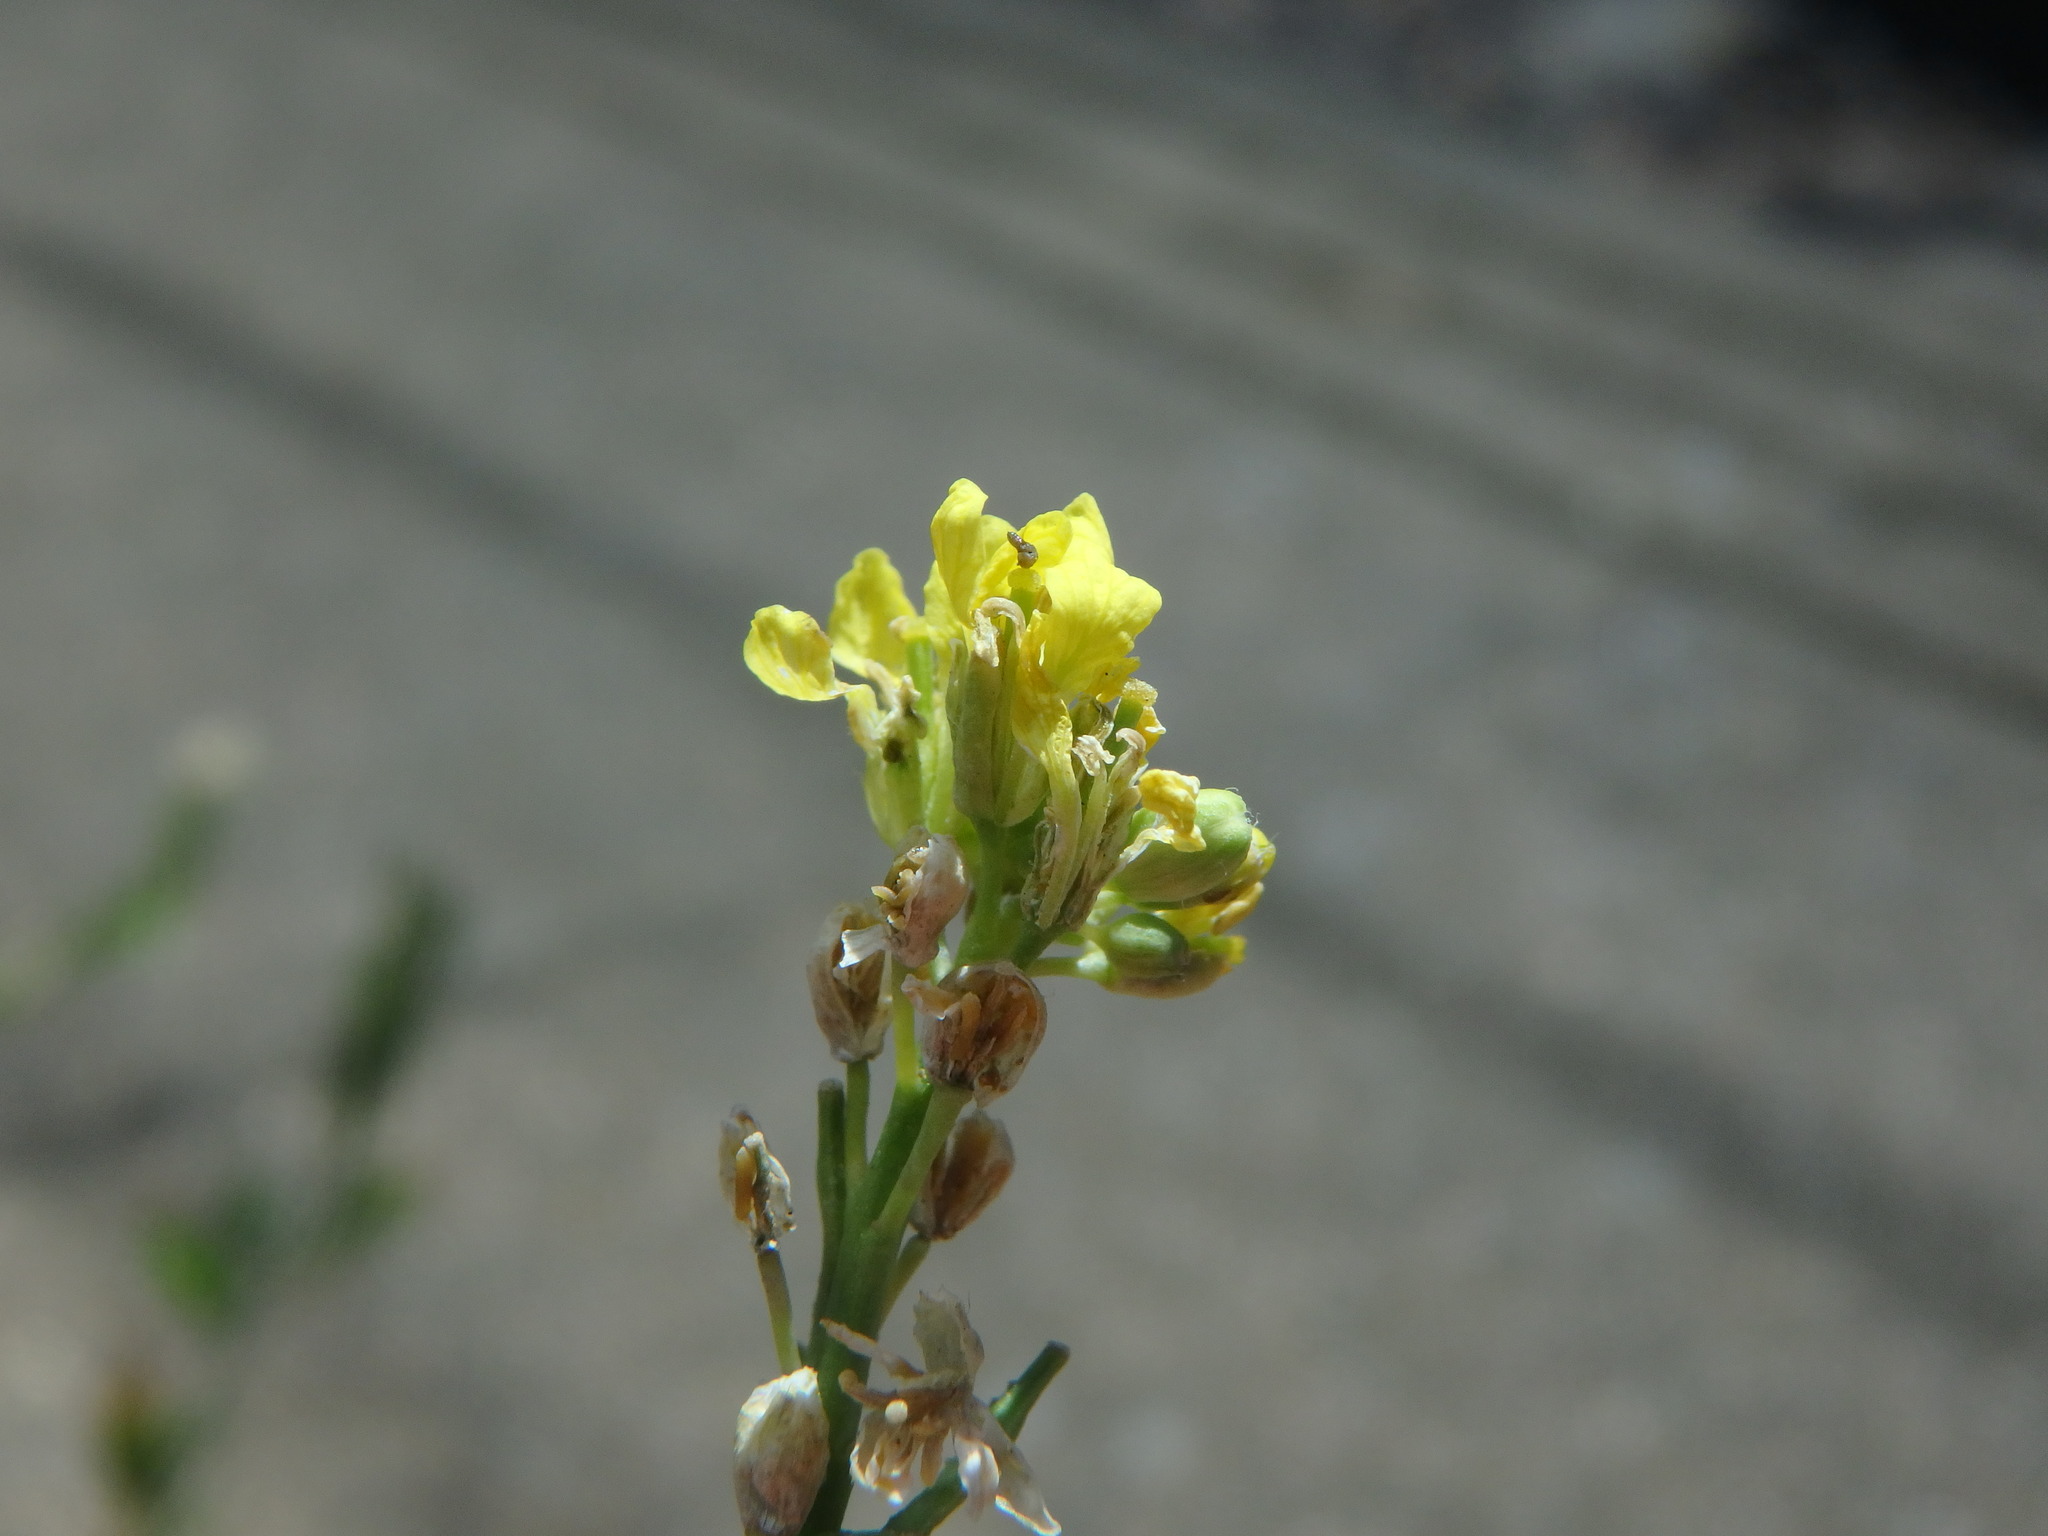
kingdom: Plantae
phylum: Tracheophyta
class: Magnoliopsida
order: Brassicales
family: Brassicaceae
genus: Hirschfeldia
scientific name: Hirschfeldia incana
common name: Hoary mustard
